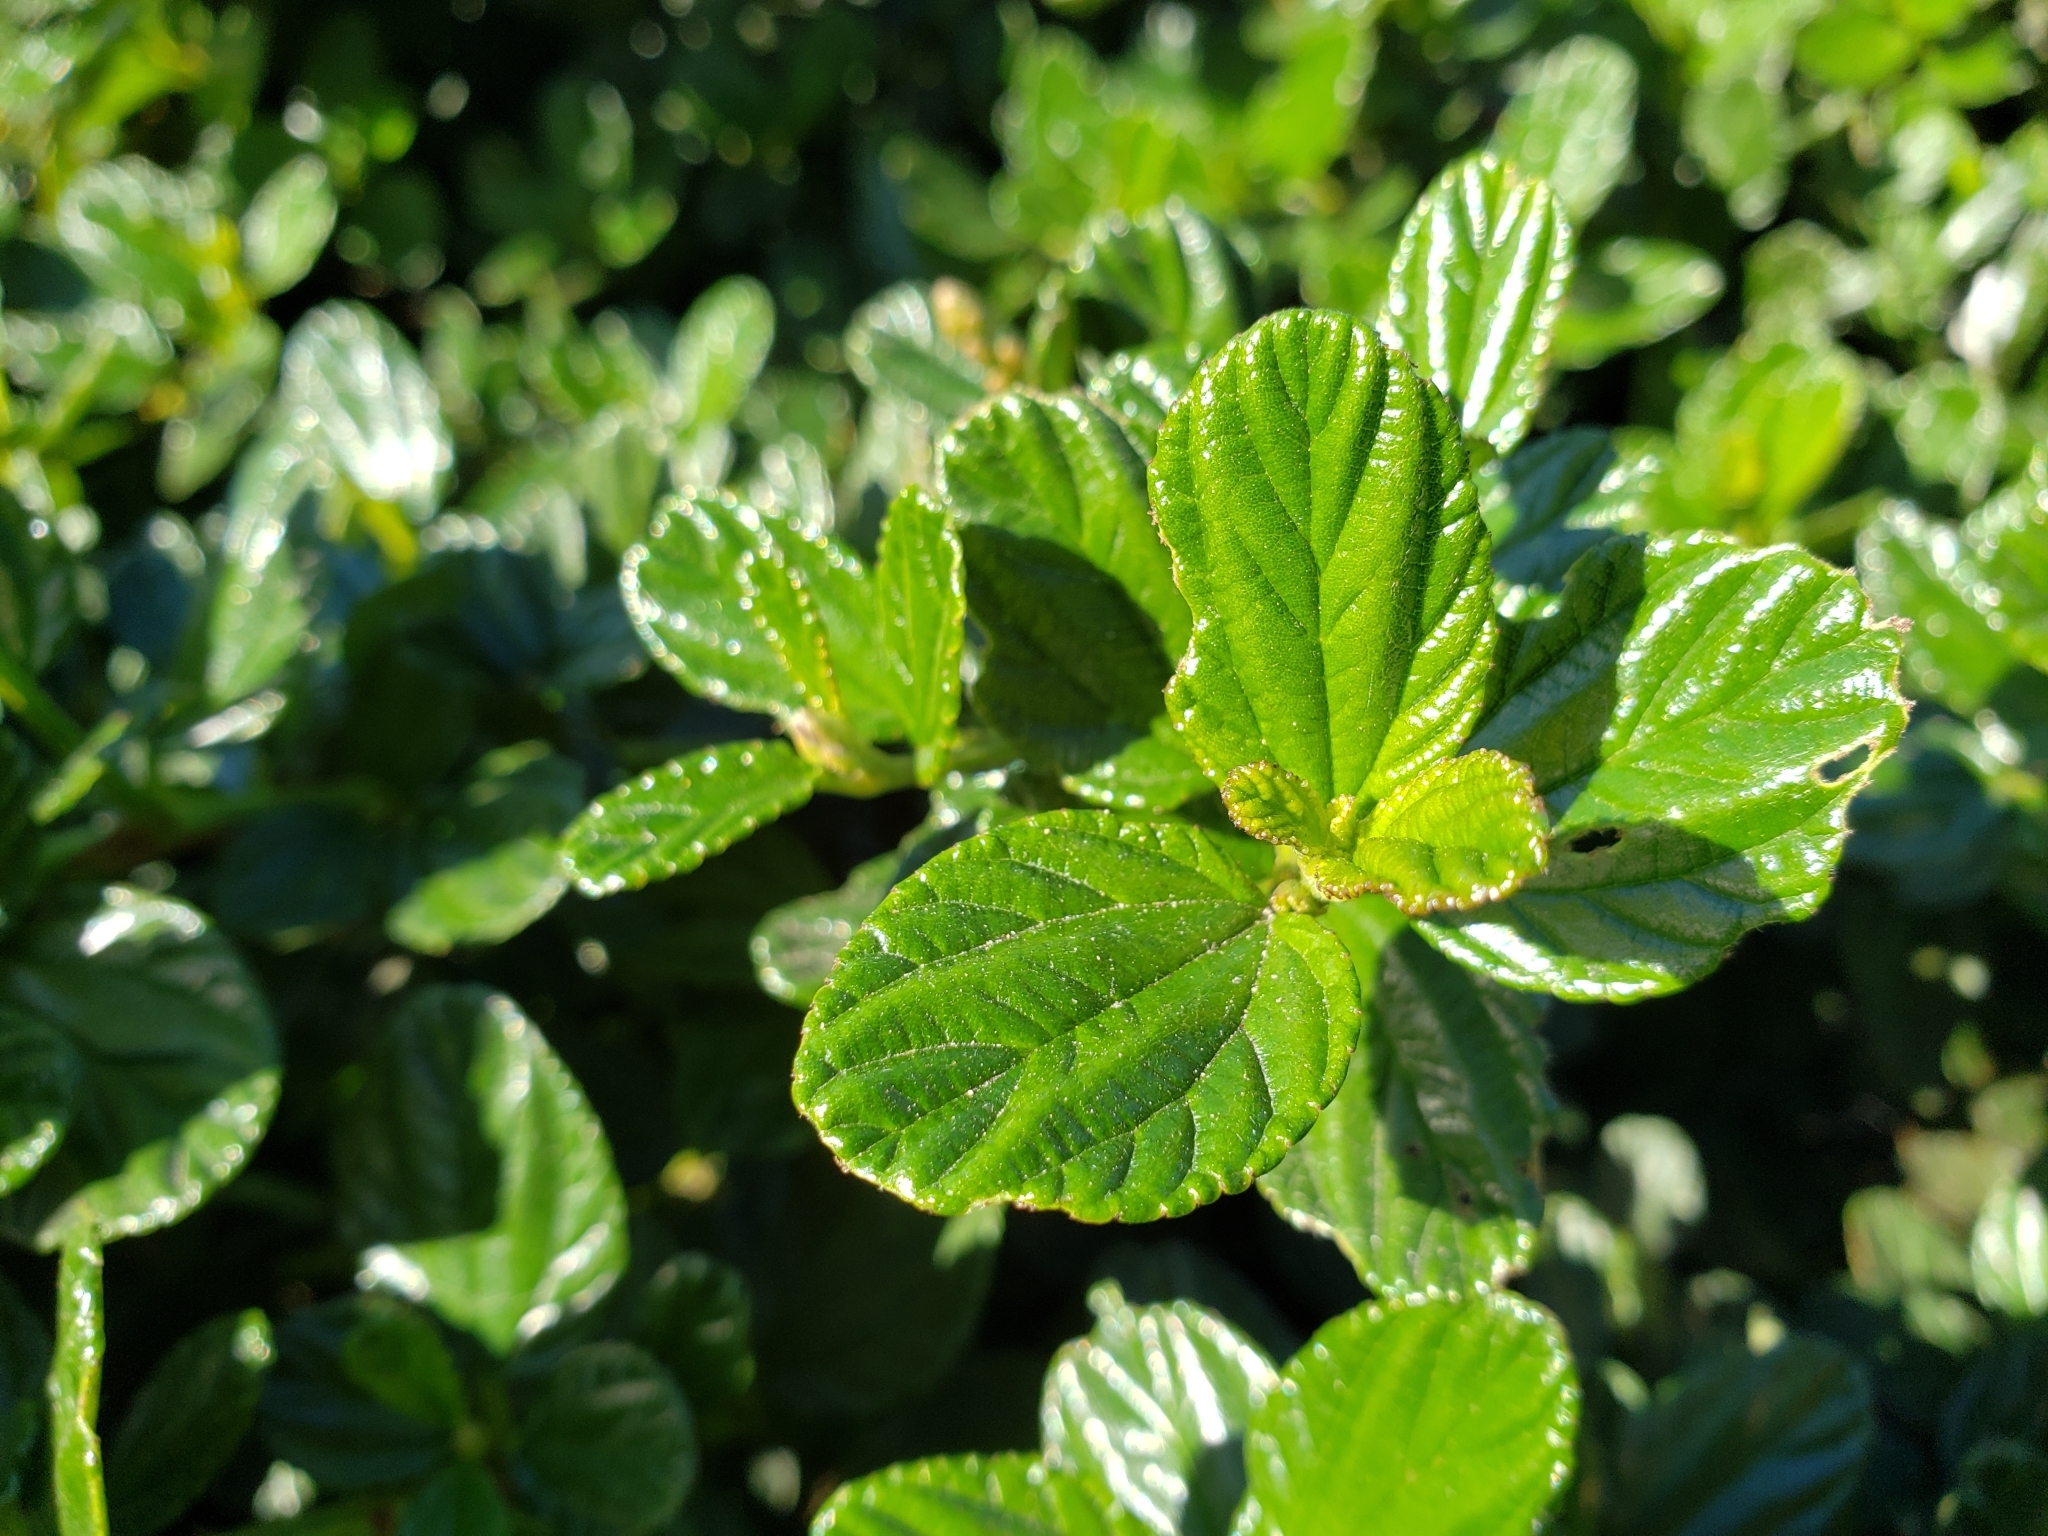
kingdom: Plantae
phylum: Tracheophyta
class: Magnoliopsida
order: Rosales
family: Rhamnaceae
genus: Ceanothus
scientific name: Ceanothus thyrsiflorus
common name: California-lilac
